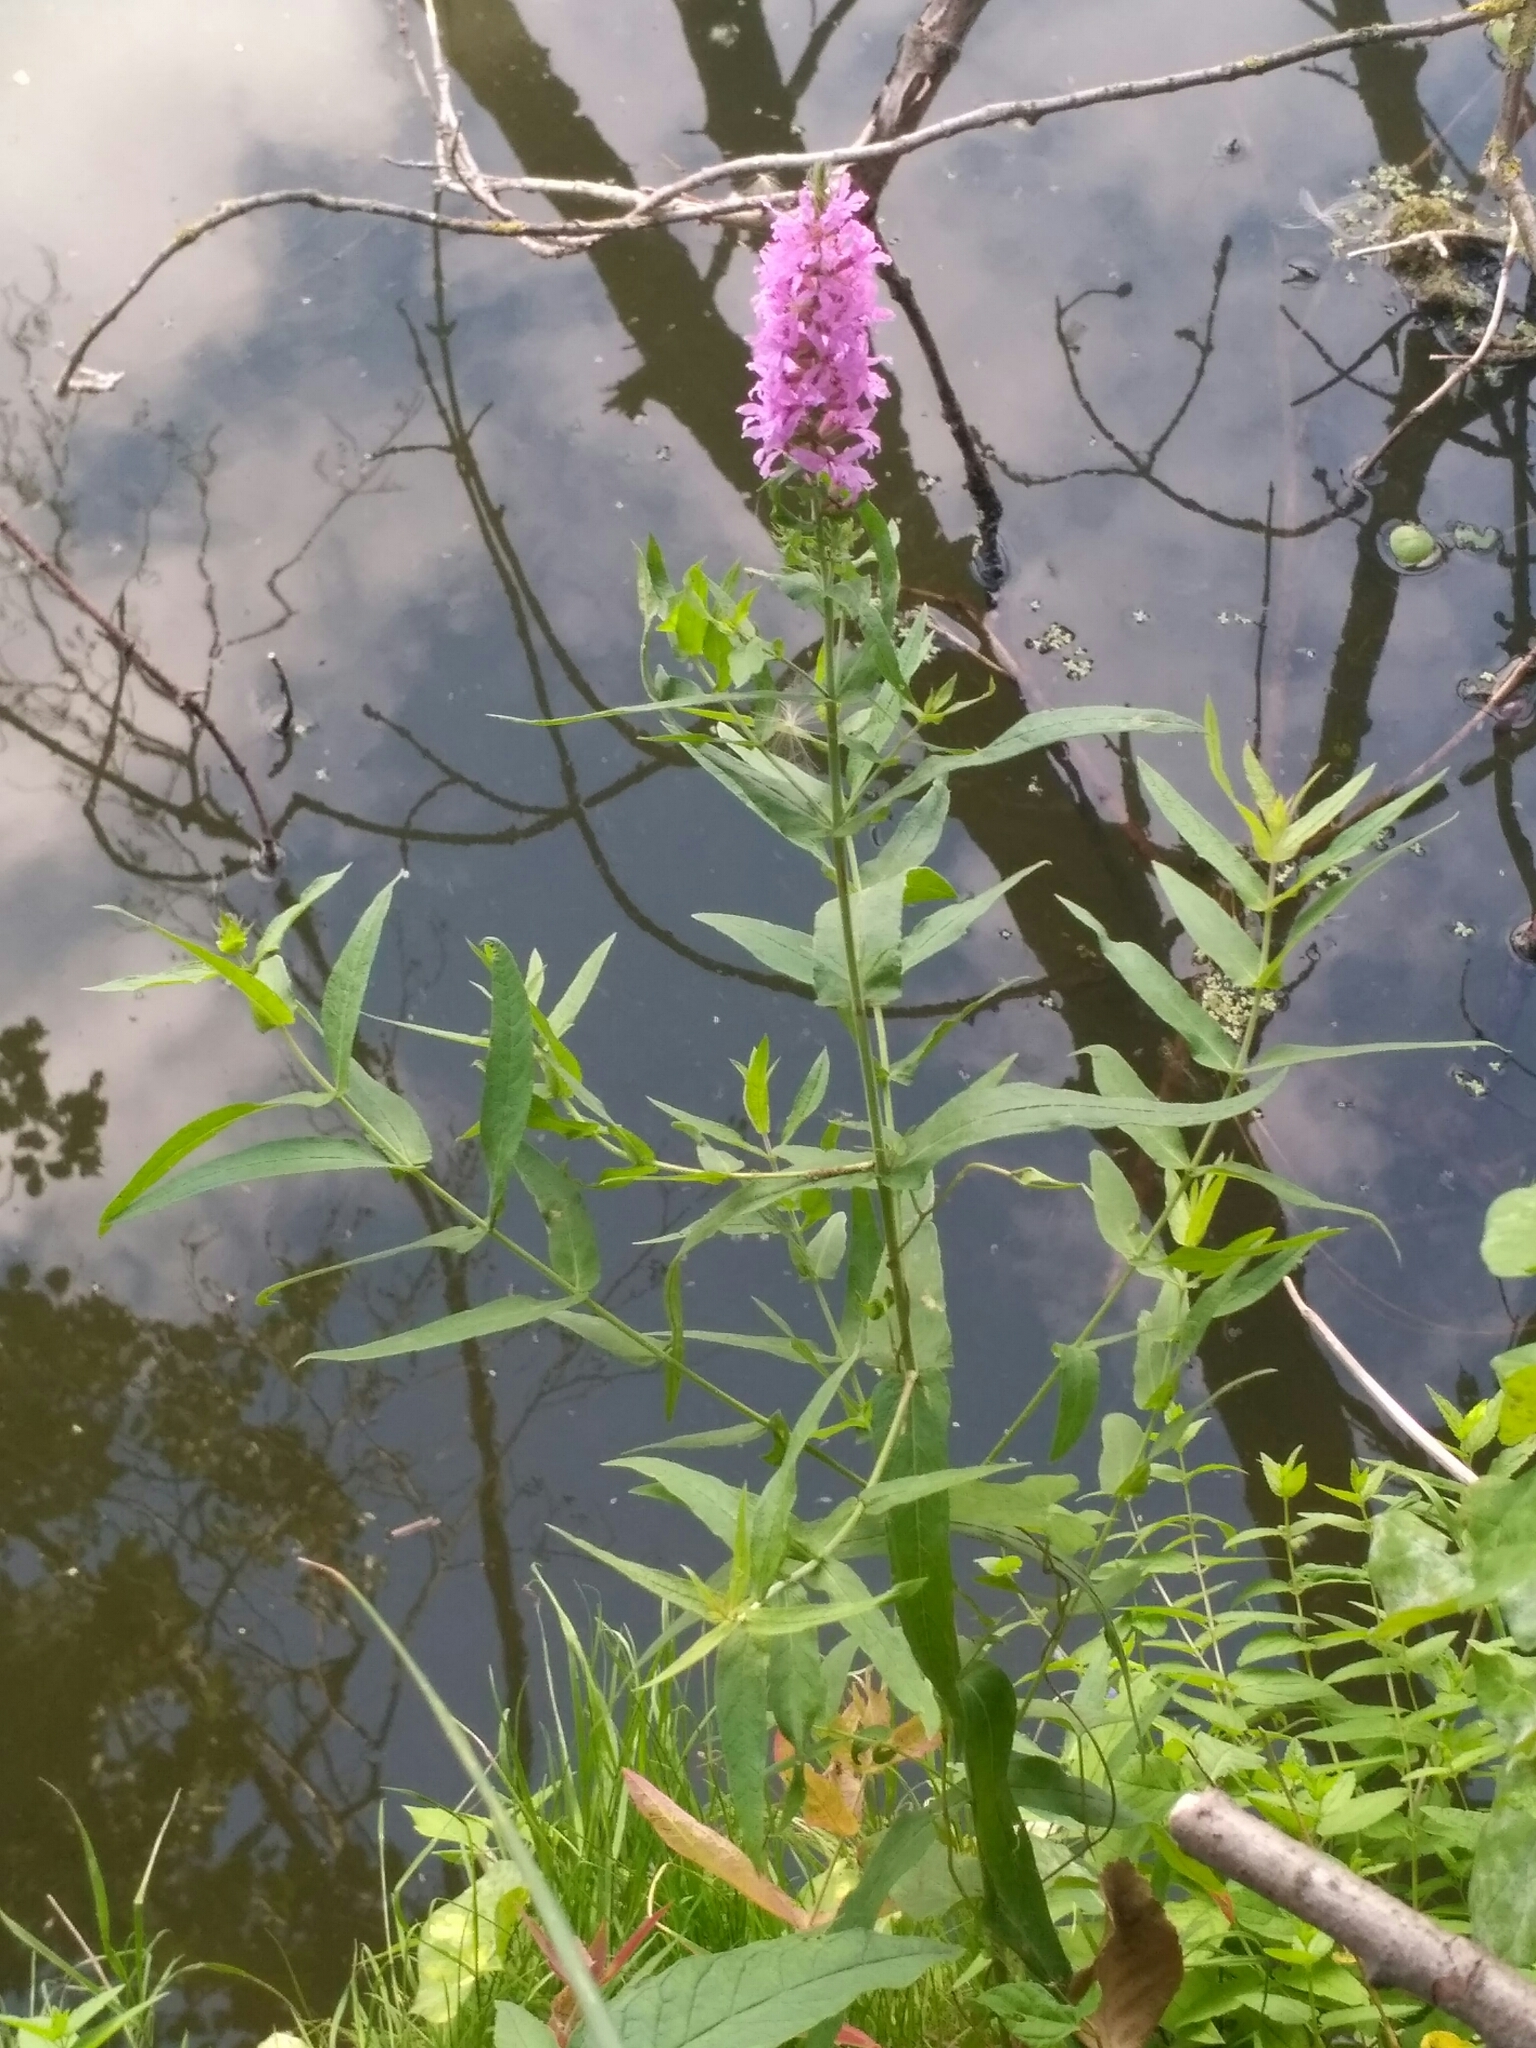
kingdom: Plantae
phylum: Tracheophyta
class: Magnoliopsida
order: Myrtales
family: Lythraceae
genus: Lythrum
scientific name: Lythrum salicaria
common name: Purple loosestrife
